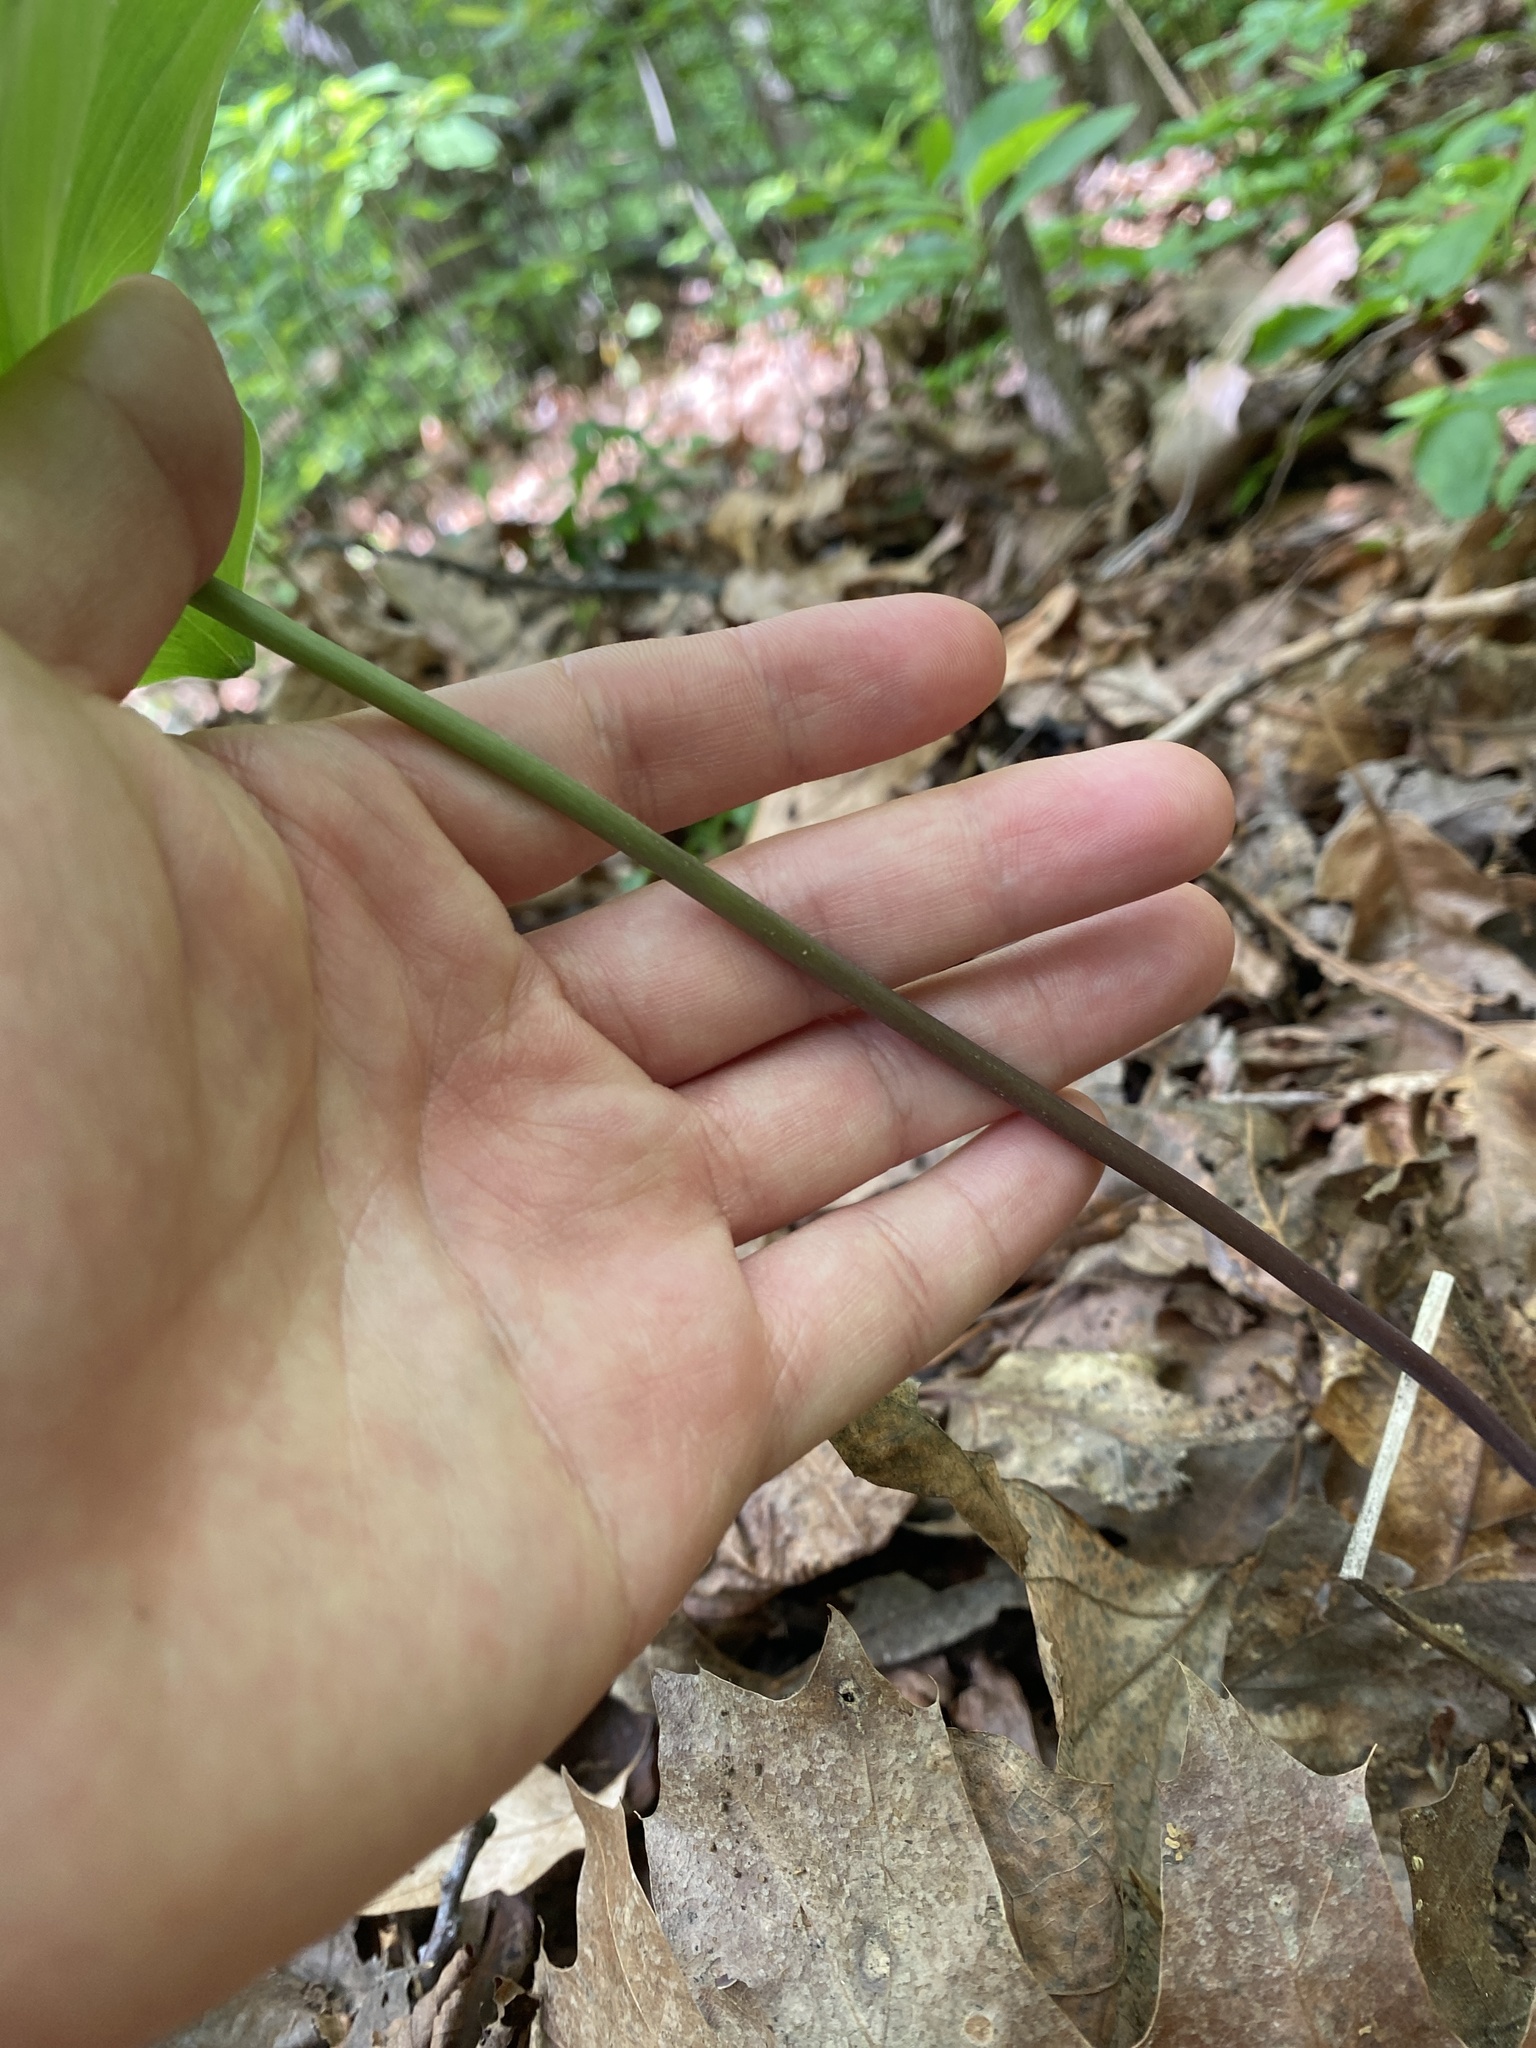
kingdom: Plantae
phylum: Tracheophyta
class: Liliopsida
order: Asparagales
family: Orchidaceae
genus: Isotria
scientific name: Isotria verticillata
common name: Large whorled pogonia
